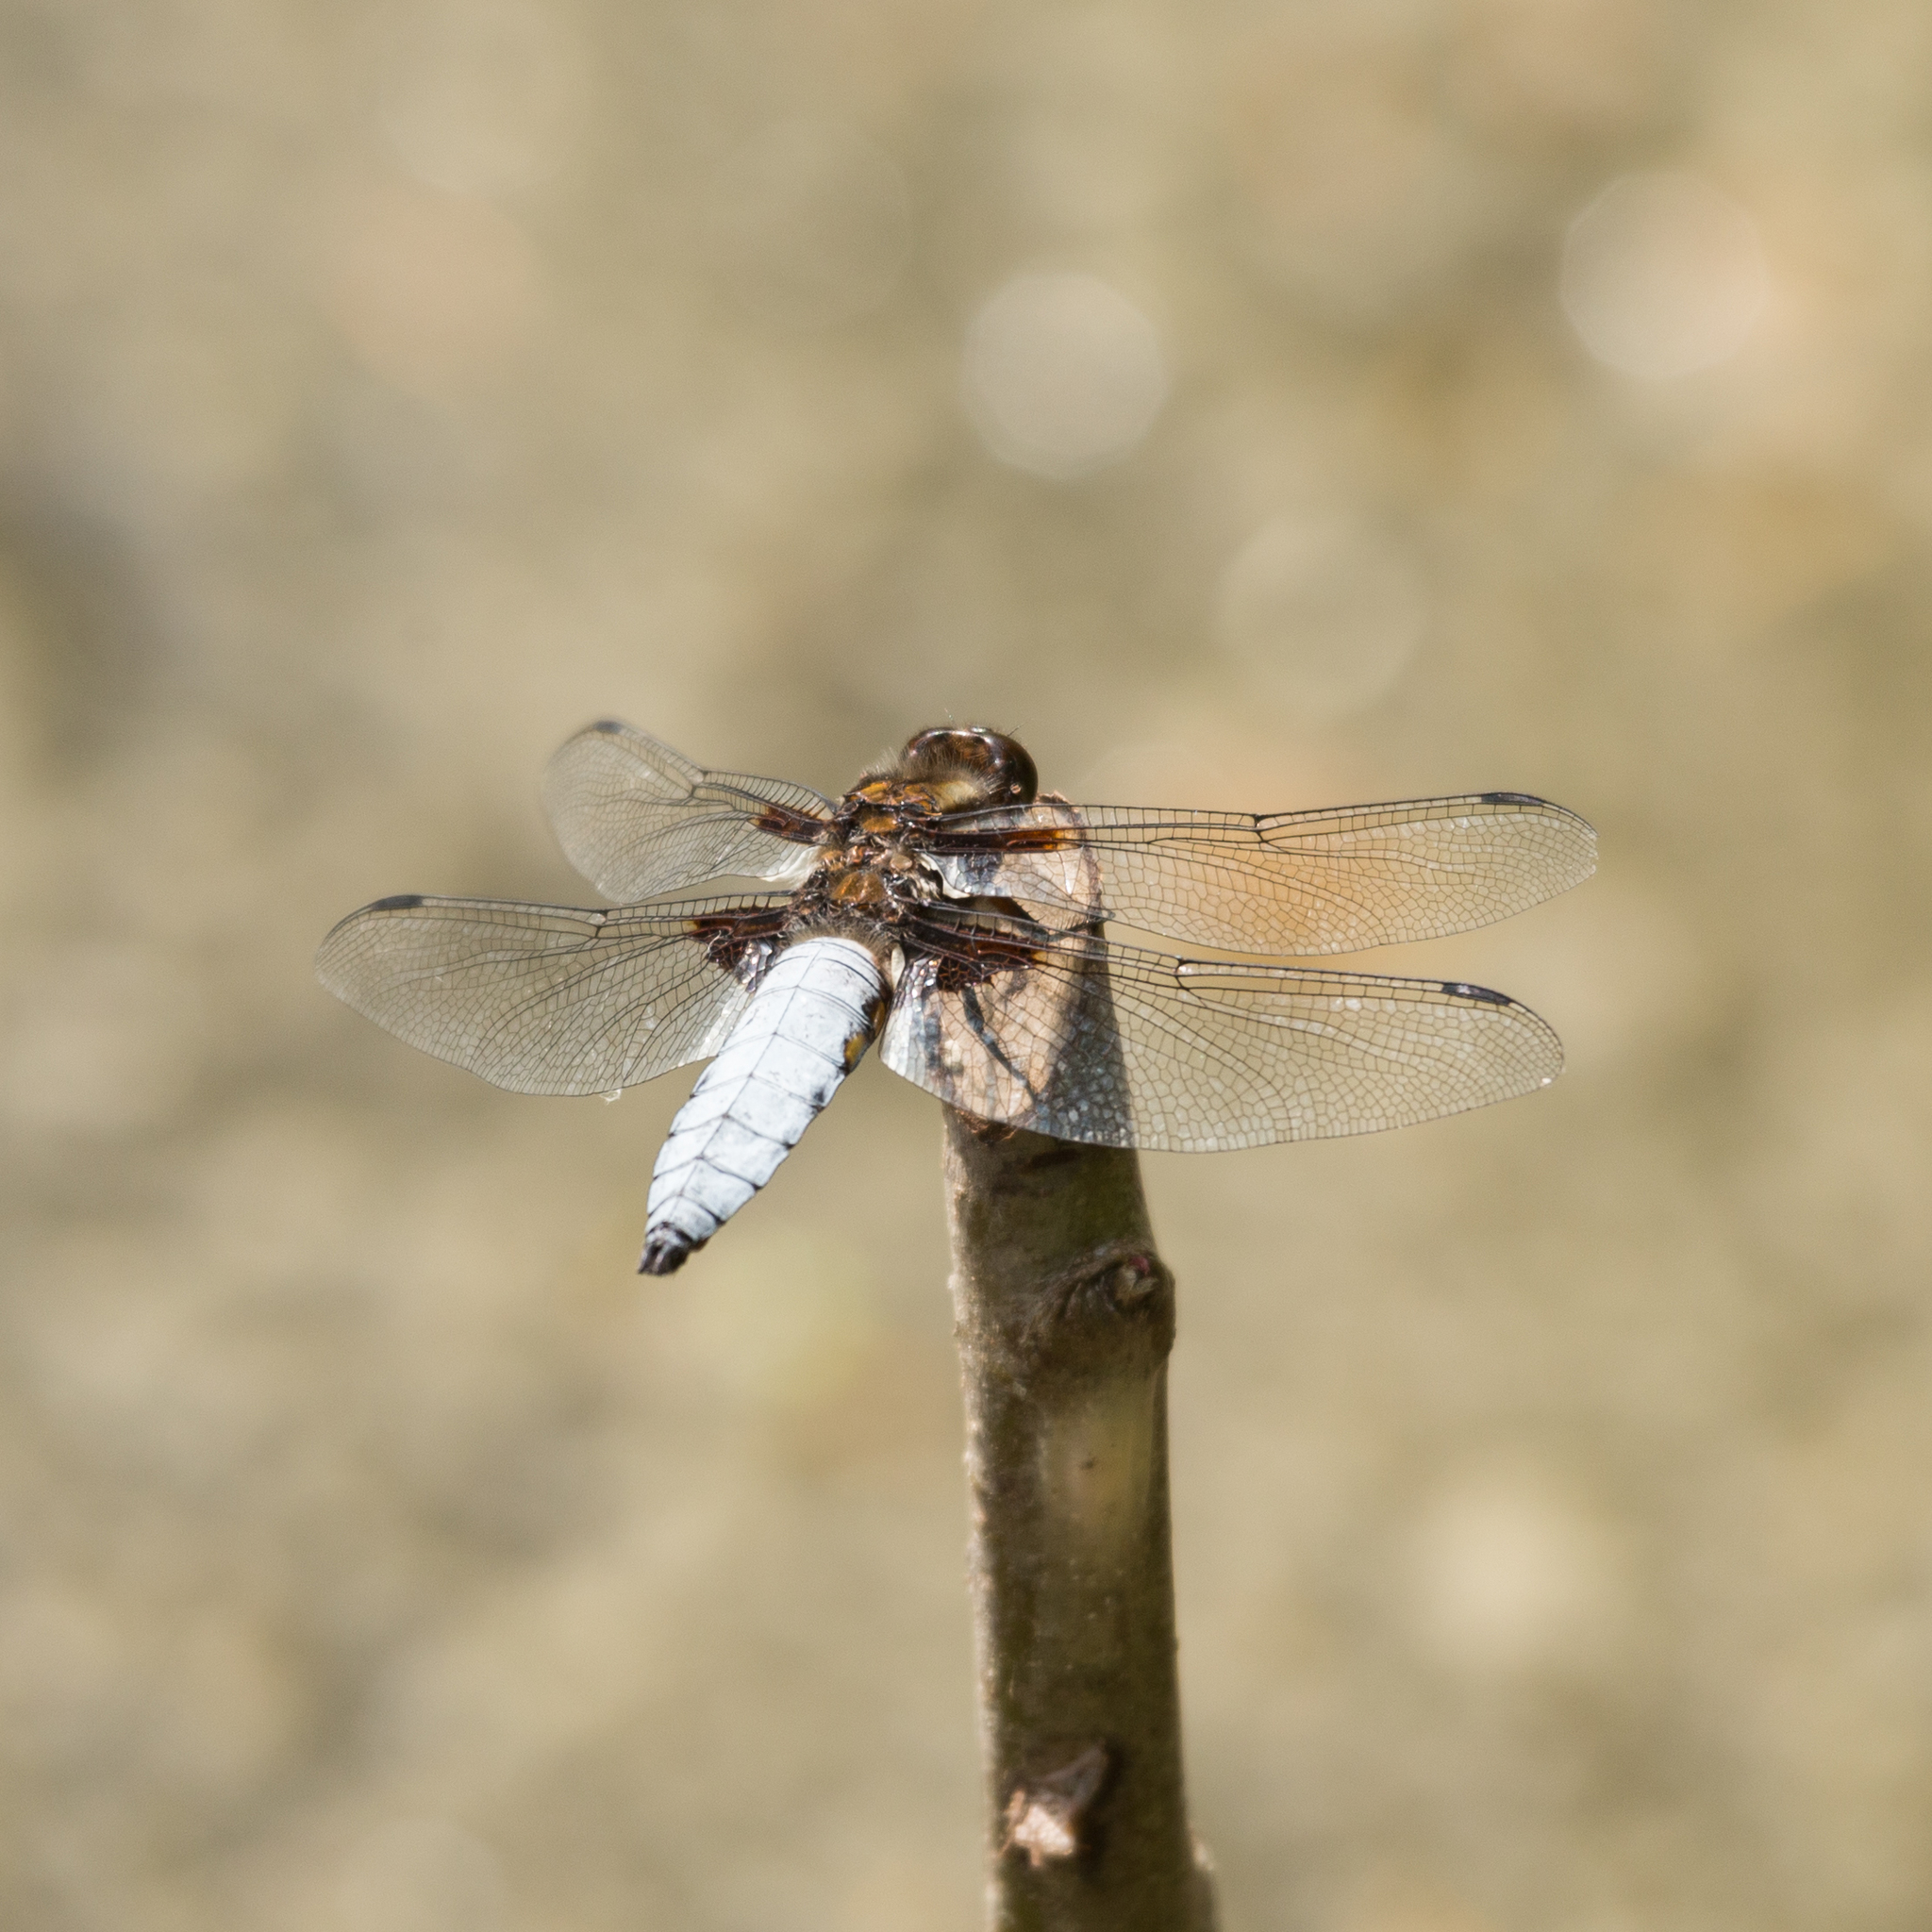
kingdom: Animalia
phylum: Arthropoda
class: Insecta
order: Odonata
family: Libellulidae
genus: Libellula
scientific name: Libellula depressa
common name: Broad-bodied chaser
